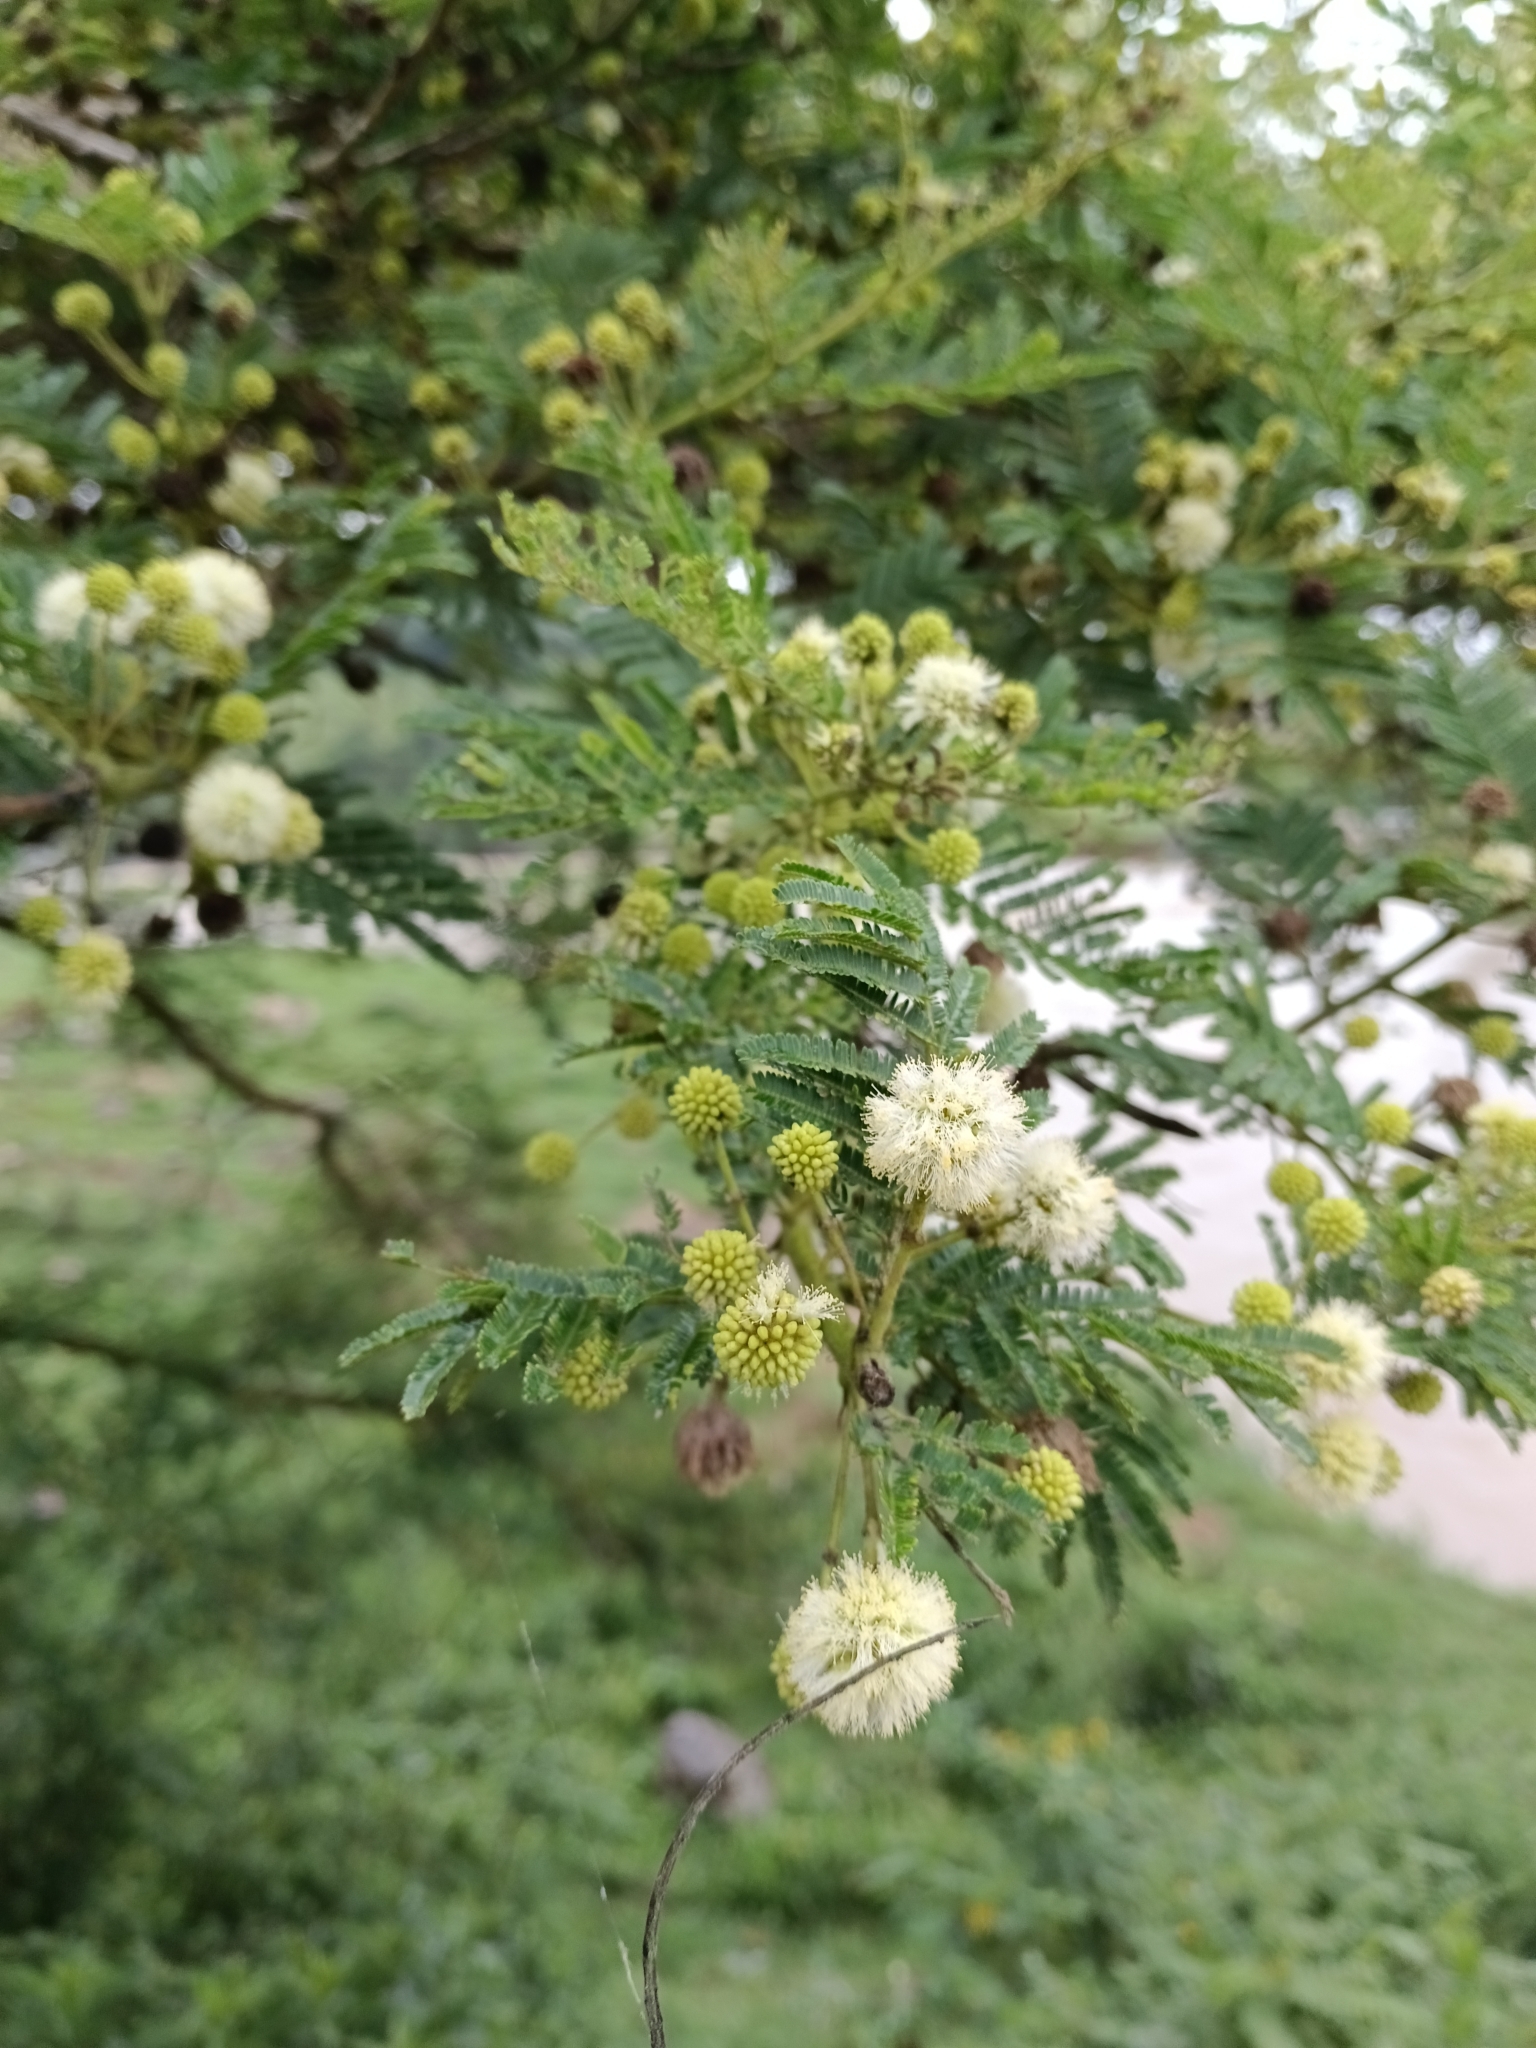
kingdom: Plantae
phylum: Tracheophyta
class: Magnoliopsida
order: Fabales
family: Fabaceae
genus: Vachellia
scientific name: Vachellia sieberiana
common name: Flat-topped thorn
